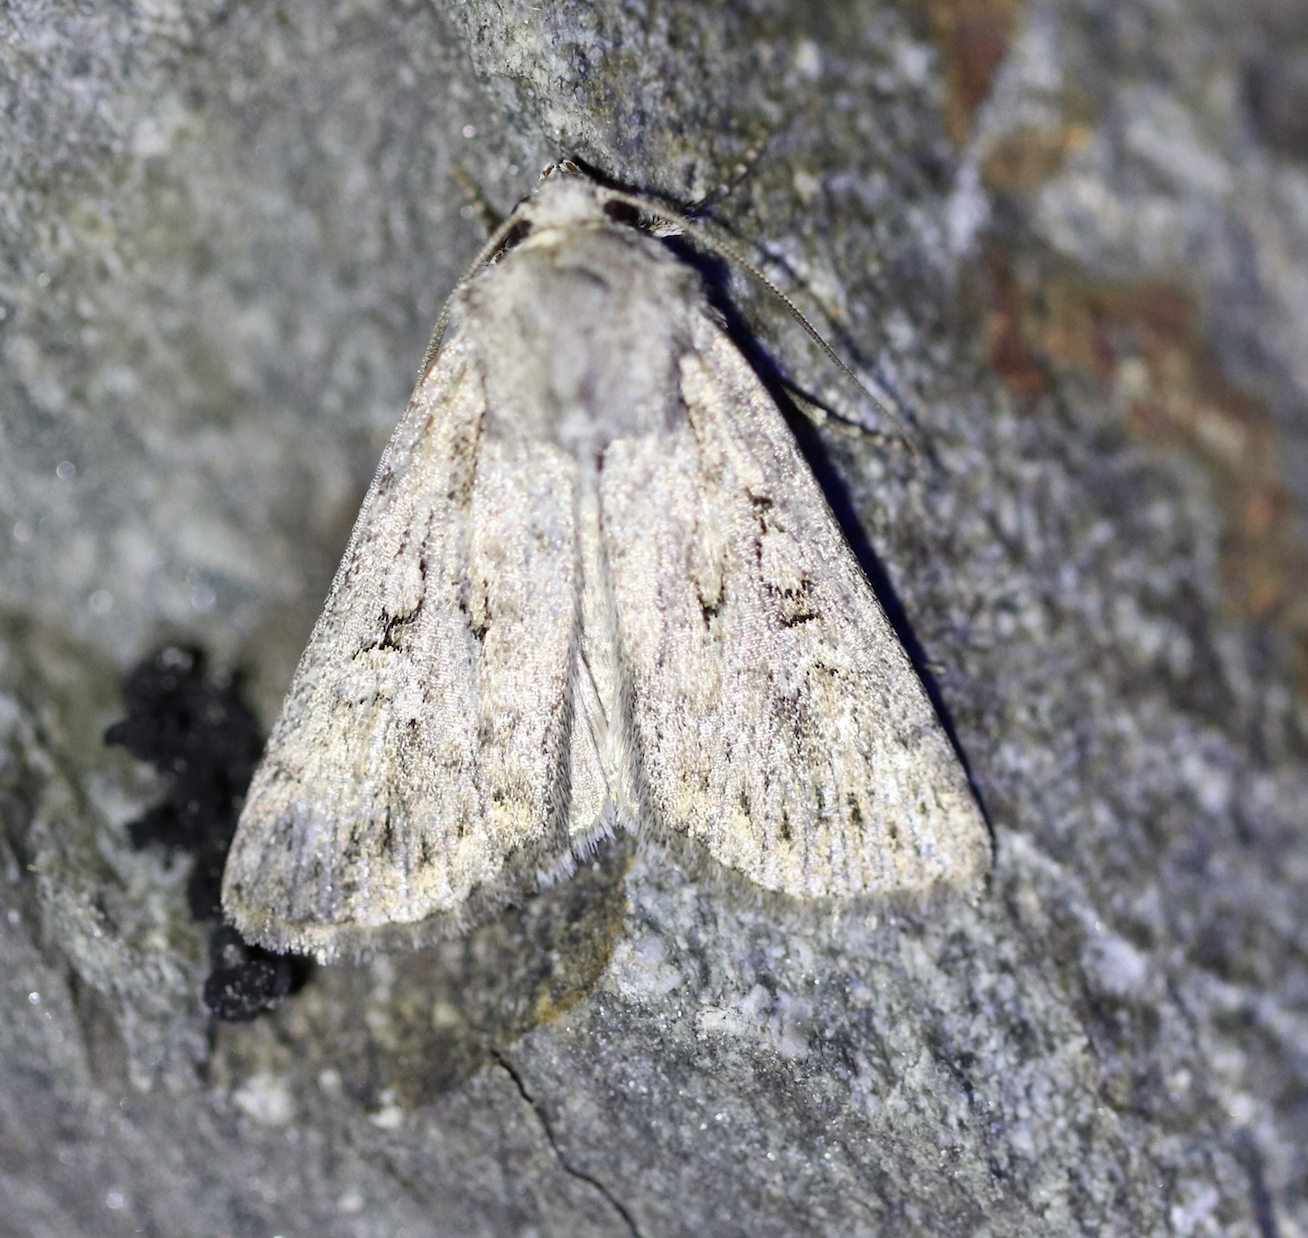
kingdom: Animalia
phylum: Arthropoda
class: Insecta
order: Lepidoptera
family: Noctuidae
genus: Yigoga
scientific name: Yigoga forcipula
